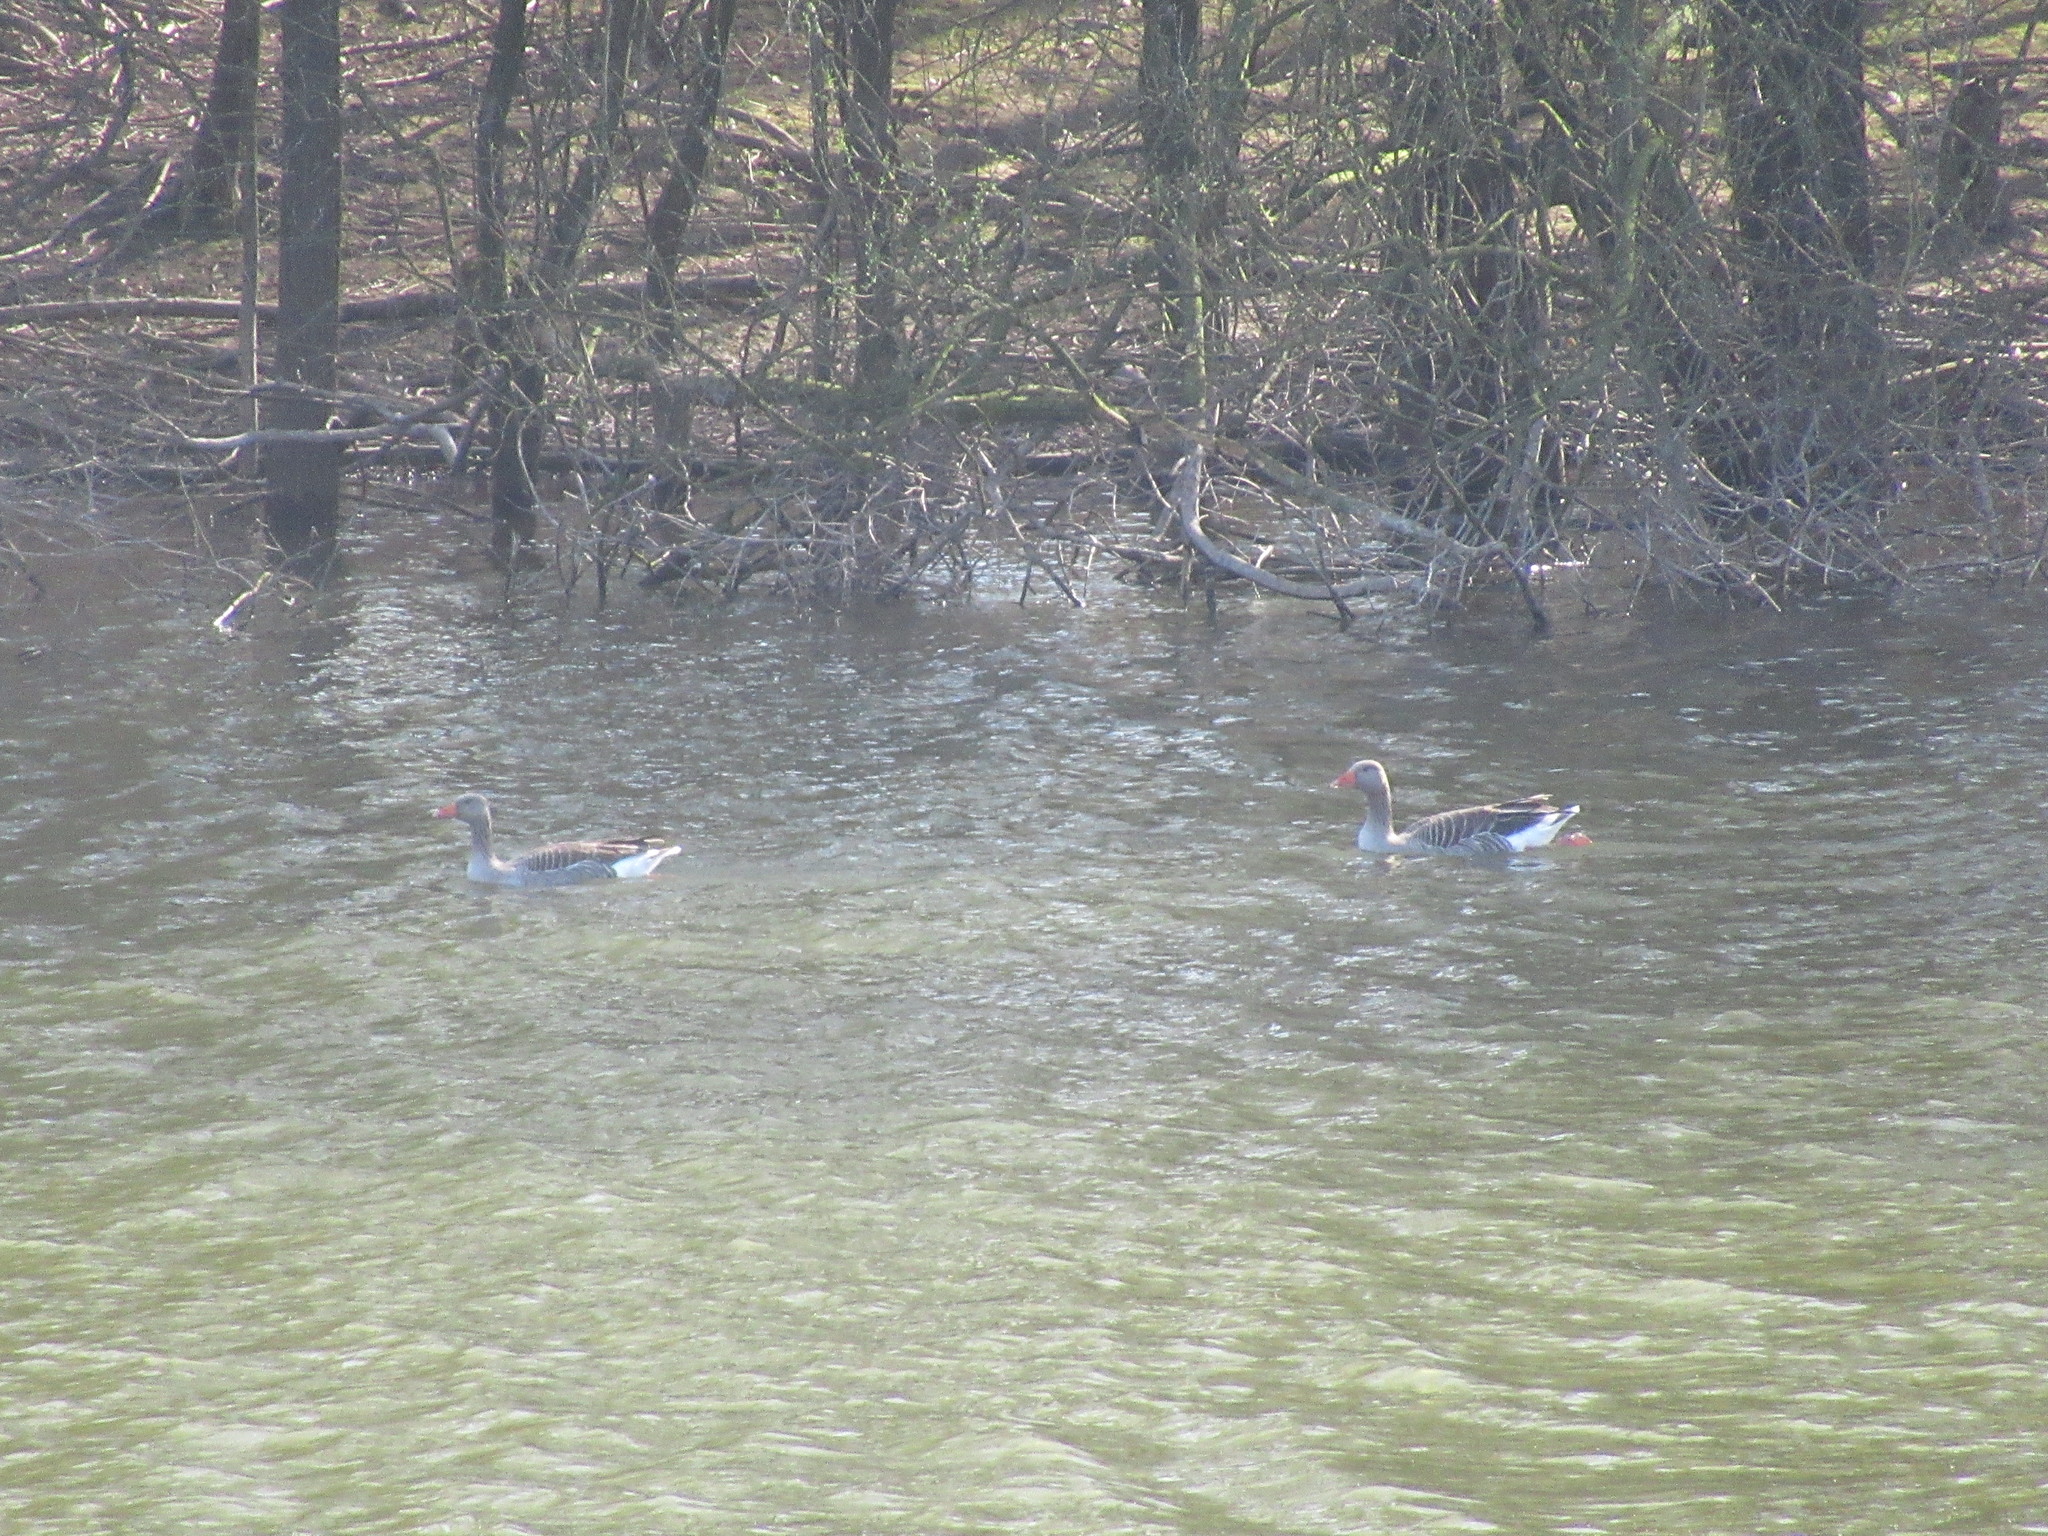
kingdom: Animalia
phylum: Chordata
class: Aves
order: Anseriformes
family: Anatidae
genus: Anser
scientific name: Anser anser
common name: Greylag goose
